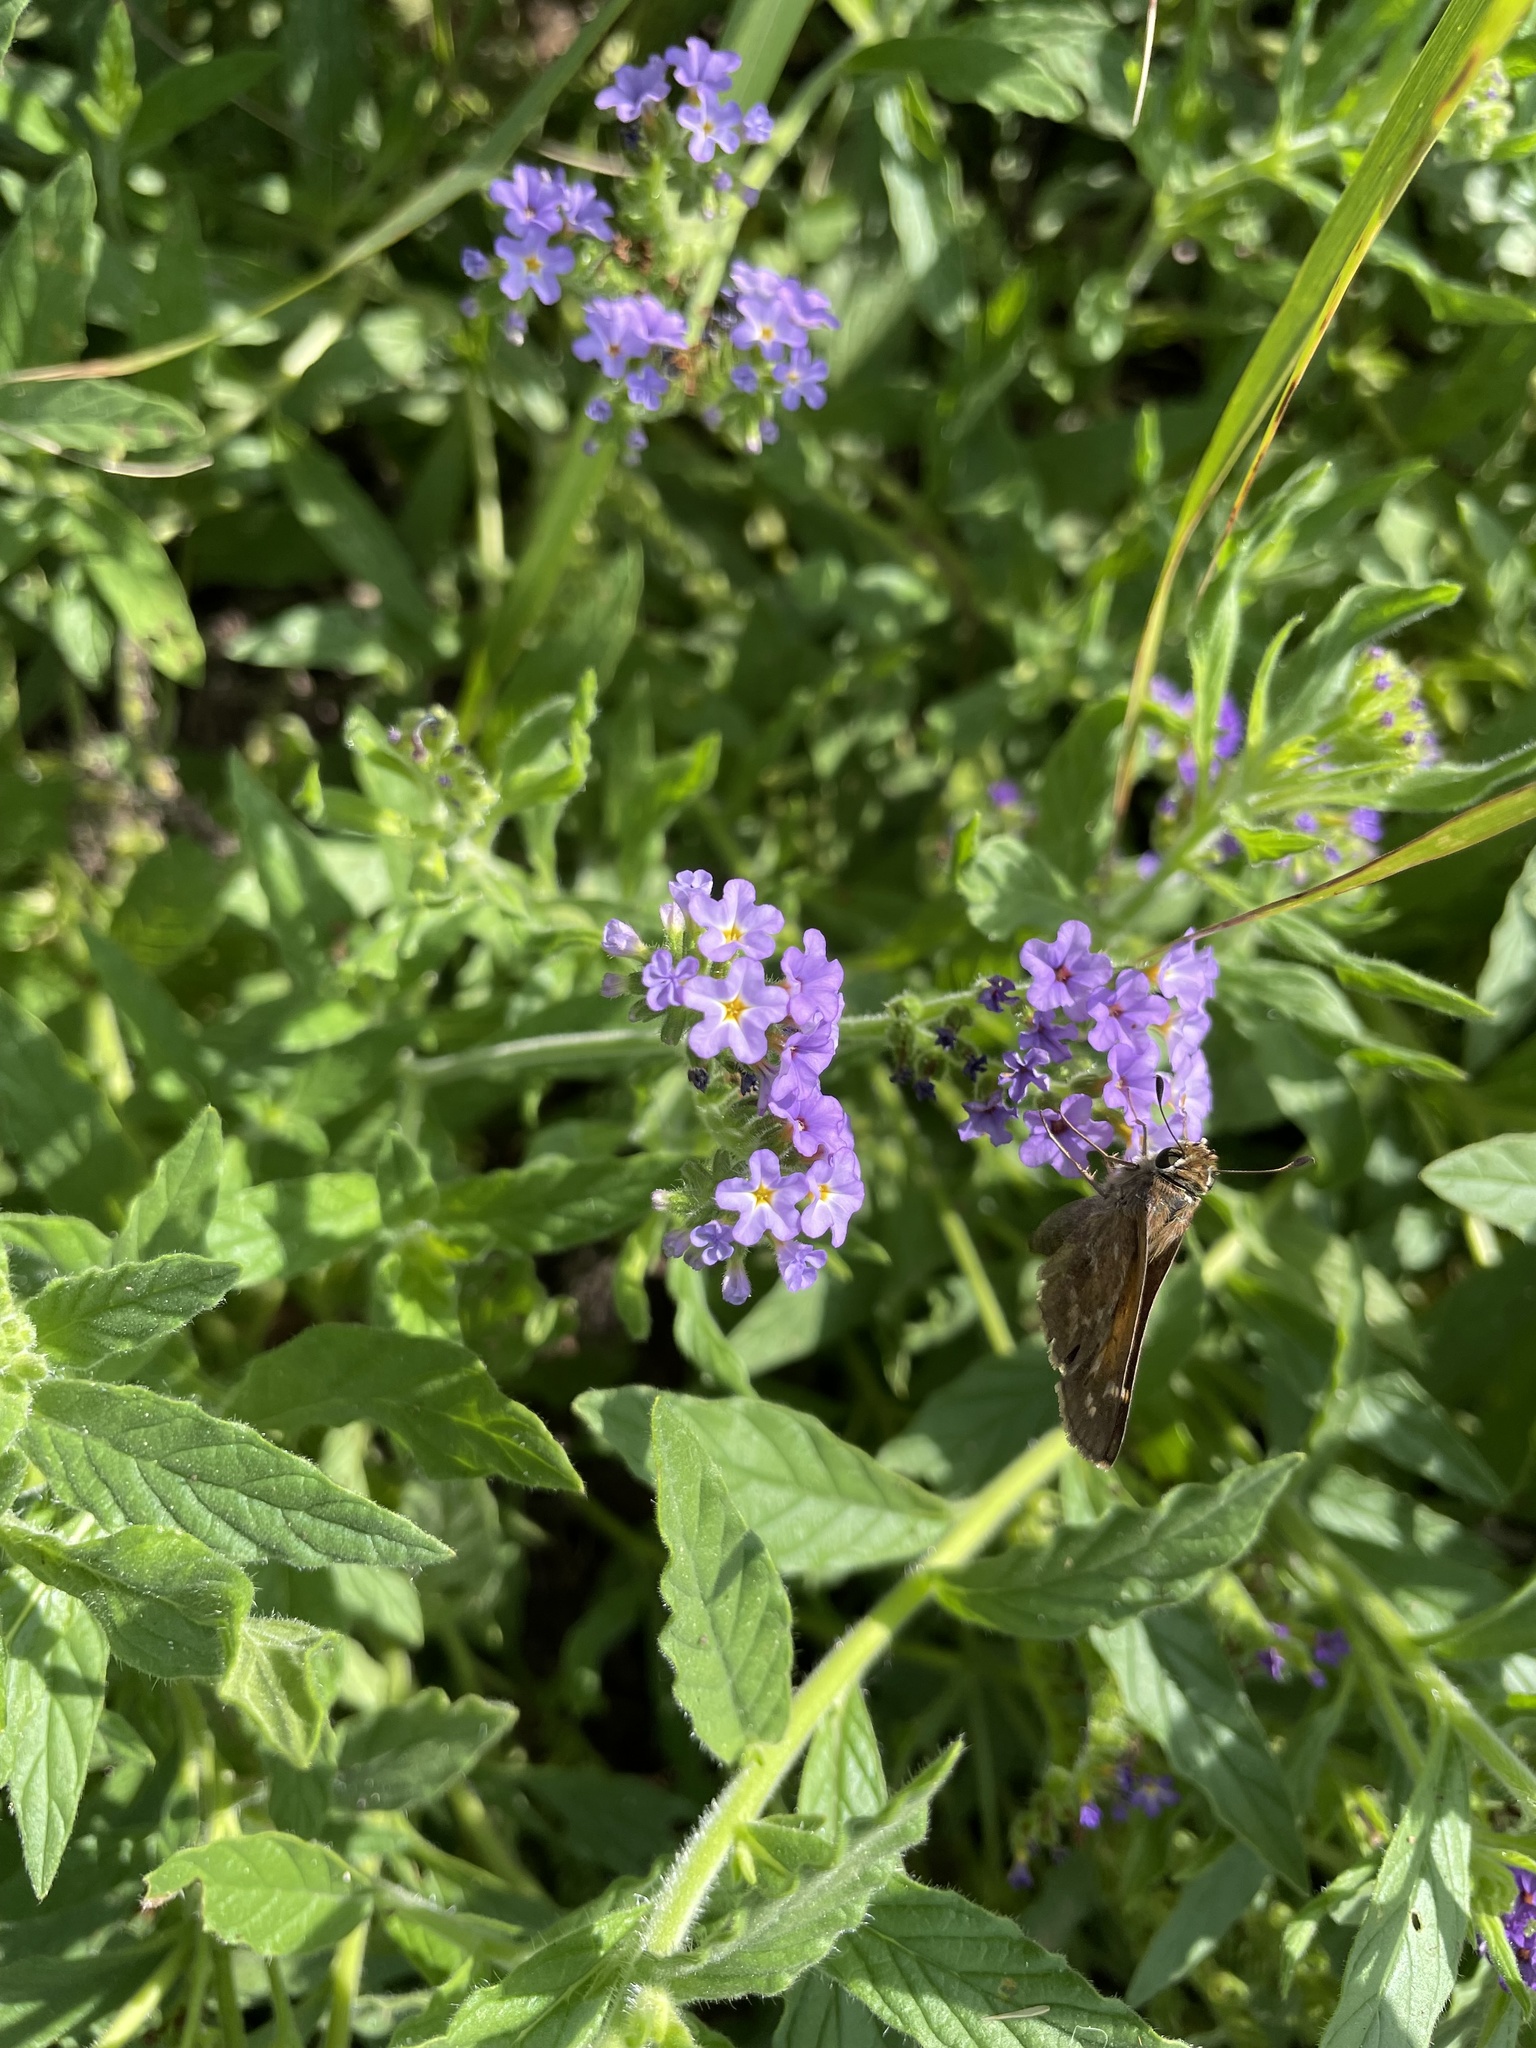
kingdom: Animalia
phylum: Arthropoda
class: Insecta
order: Lepidoptera
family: Hesperiidae
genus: Atalopedes
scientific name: Atalopedes
